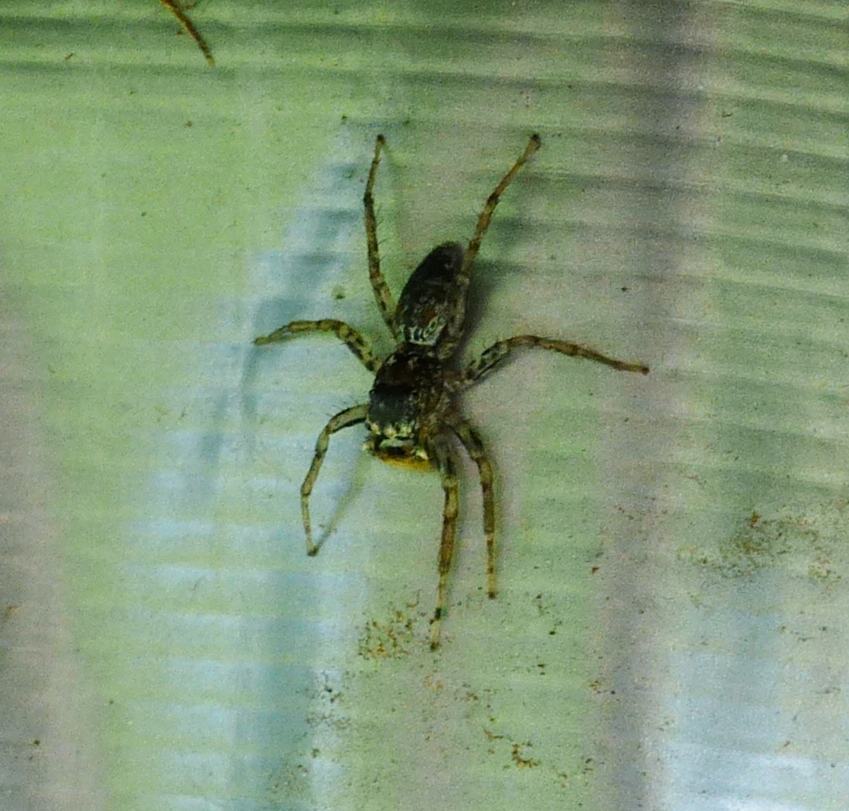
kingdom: Animalia
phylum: Arthropoda
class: Arachnida
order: Araneae
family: Salticidae
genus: Platycryptus
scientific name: Platycryptus undatus
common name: Tan jumping spider
